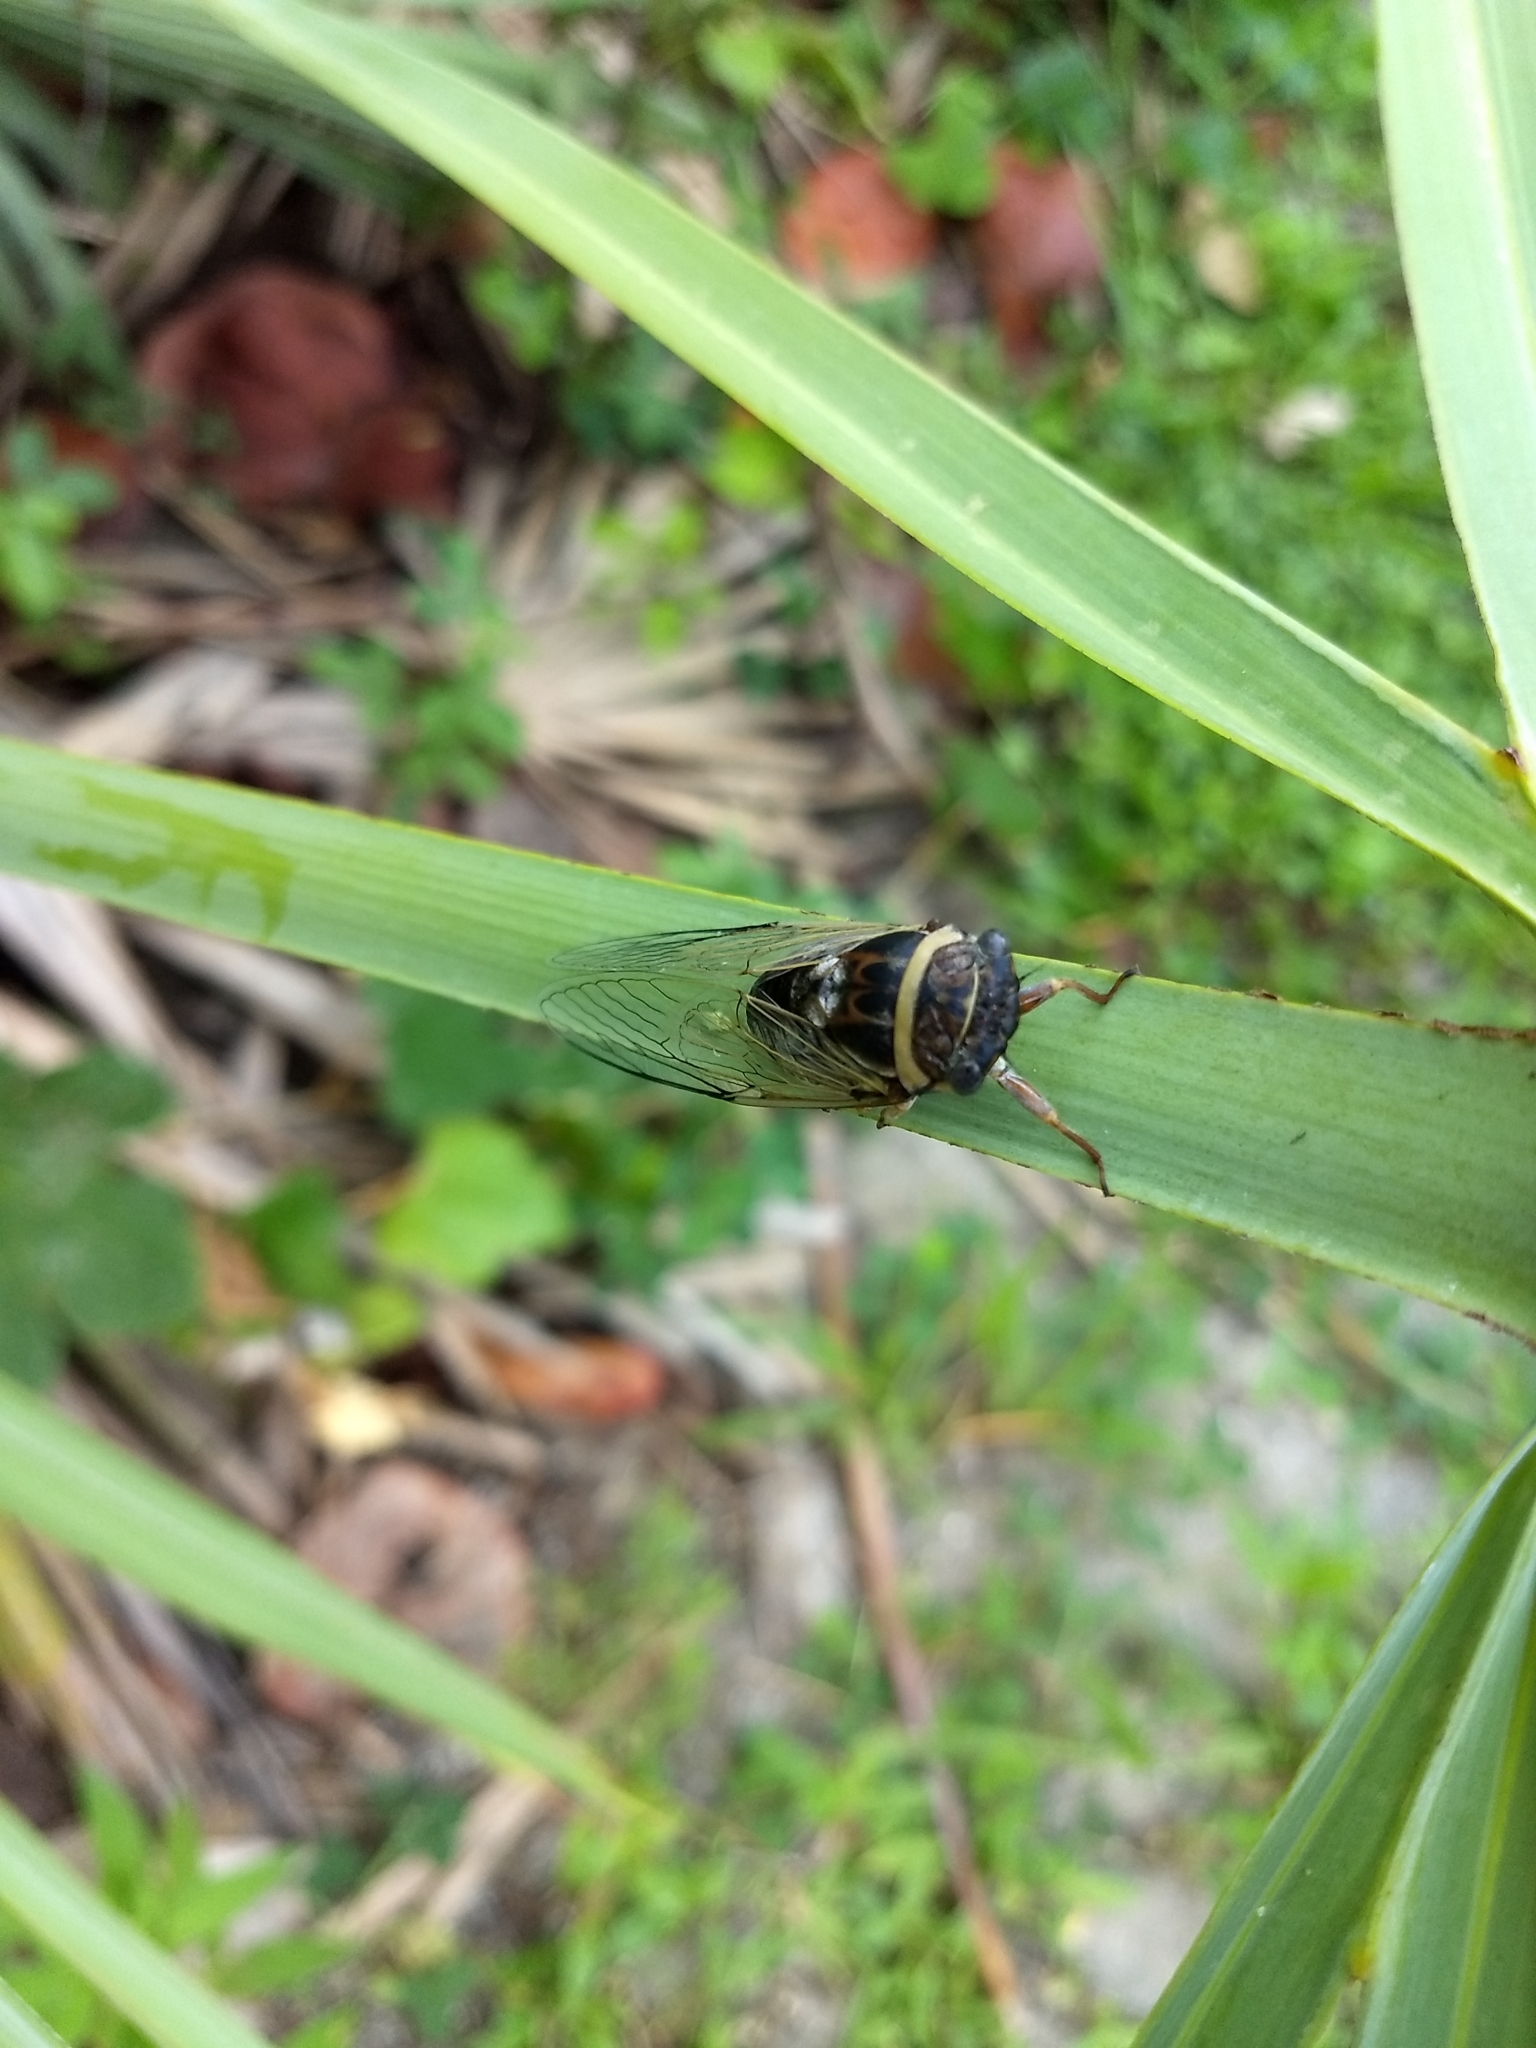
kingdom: Animalia
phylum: Arthropoda
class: Insecta
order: Hemiptera
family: Cicadidae
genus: Diceroprocta
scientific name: Diceroprocta viridifascia
